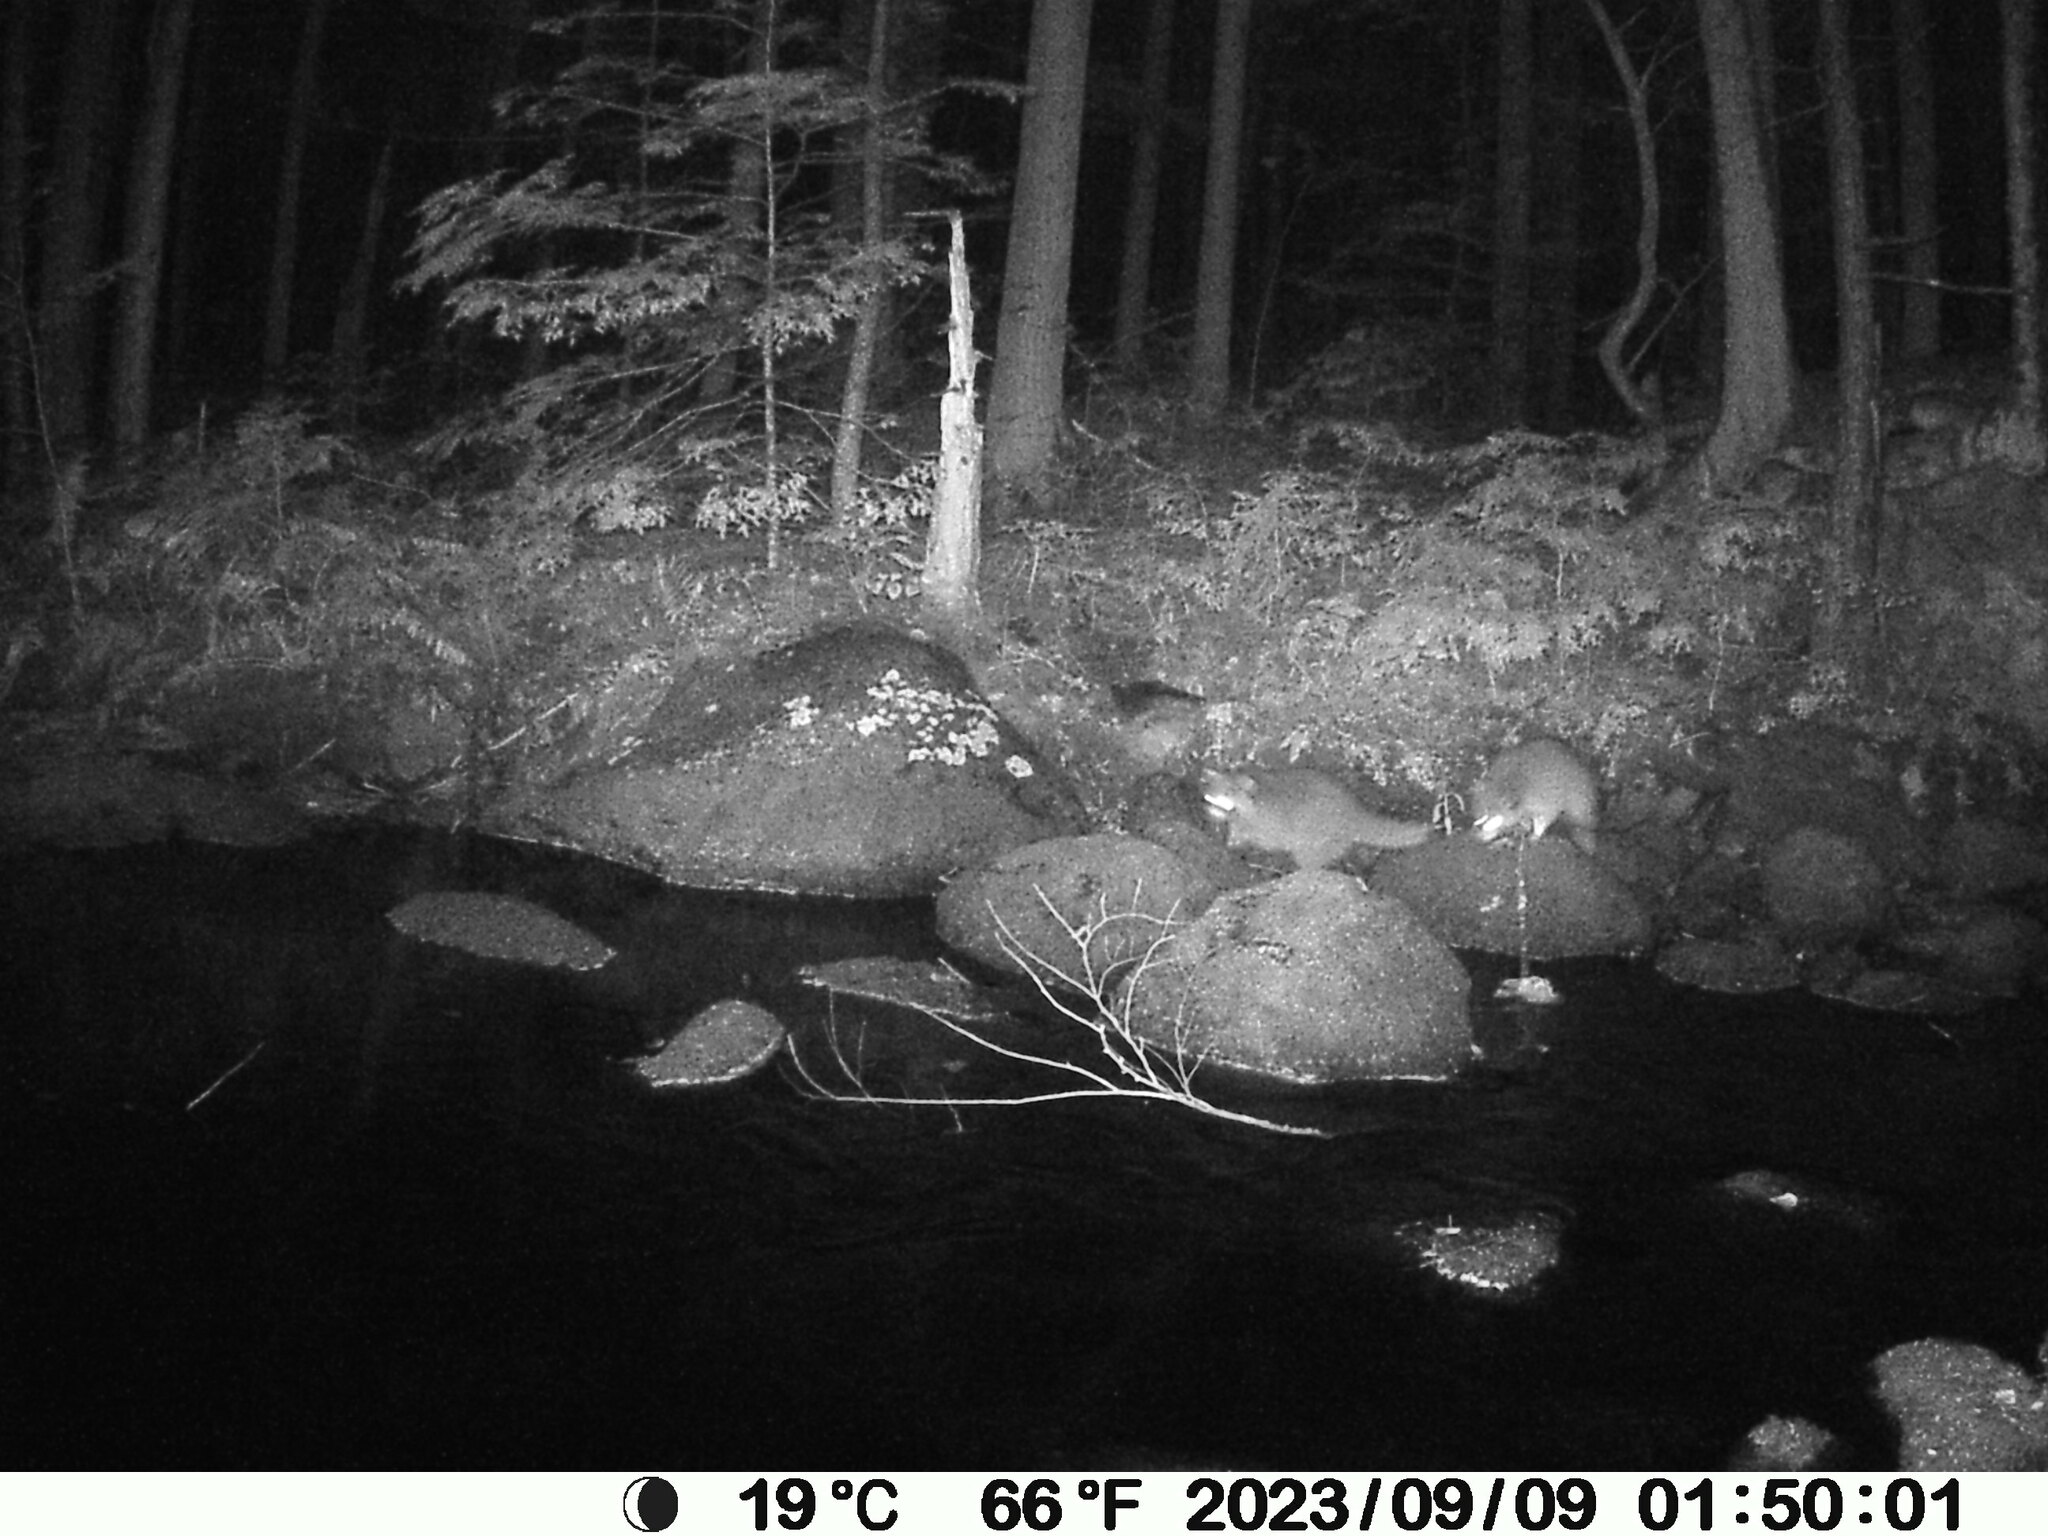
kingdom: Animalia
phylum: Chordata
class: Mammalia
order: Carnivora
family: Procyonidae
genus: Procyon
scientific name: Procyon lotor
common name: Raccoon
